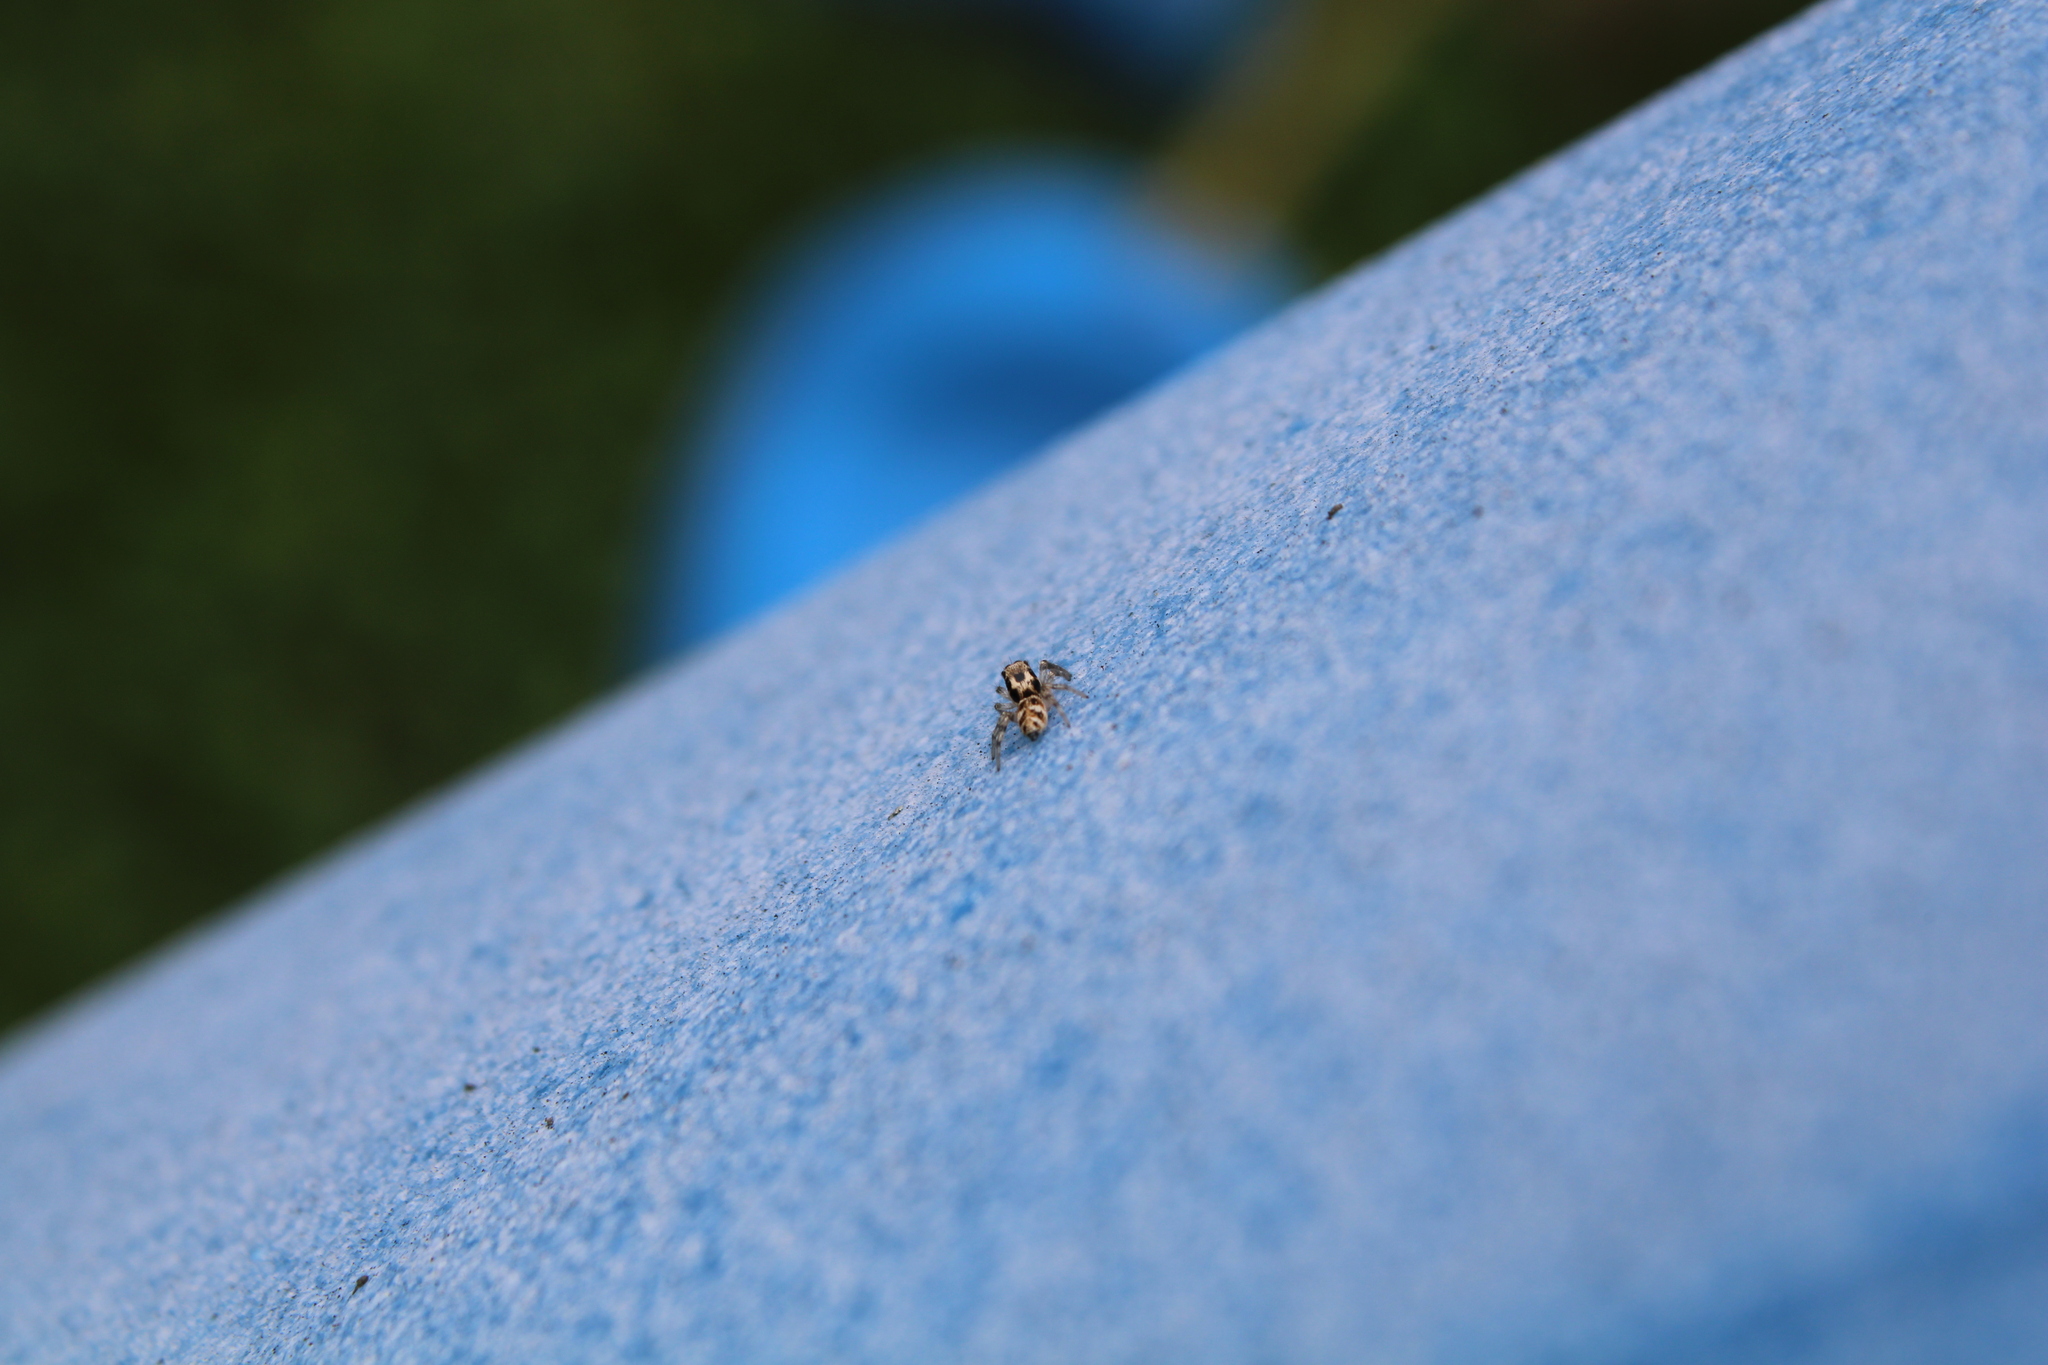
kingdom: Animalia
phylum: Arthropoda
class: Arachnida
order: Araneae
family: Salticidae
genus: Salticus
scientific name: Salticus scenicus
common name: Zebra jumper
